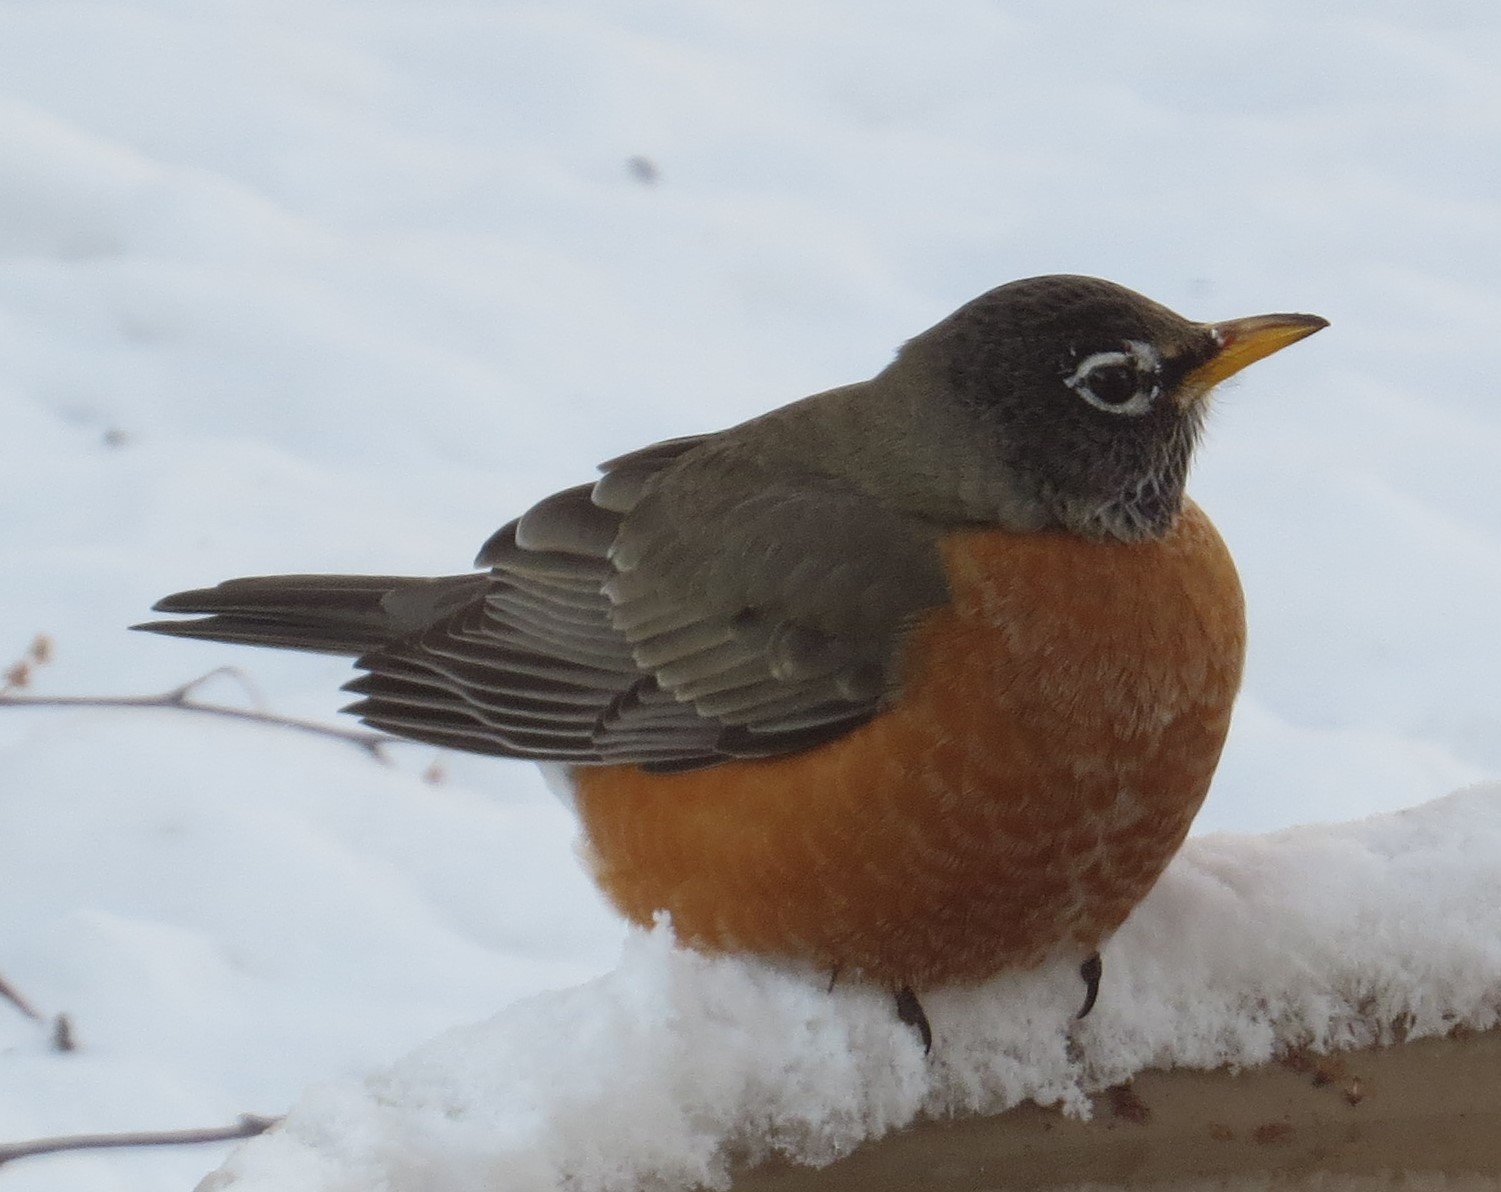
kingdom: Animalia
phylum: Chordata
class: Aves
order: Passeriformes
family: Turdidae
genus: Turdus
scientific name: Turdus migratorius
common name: American robin
